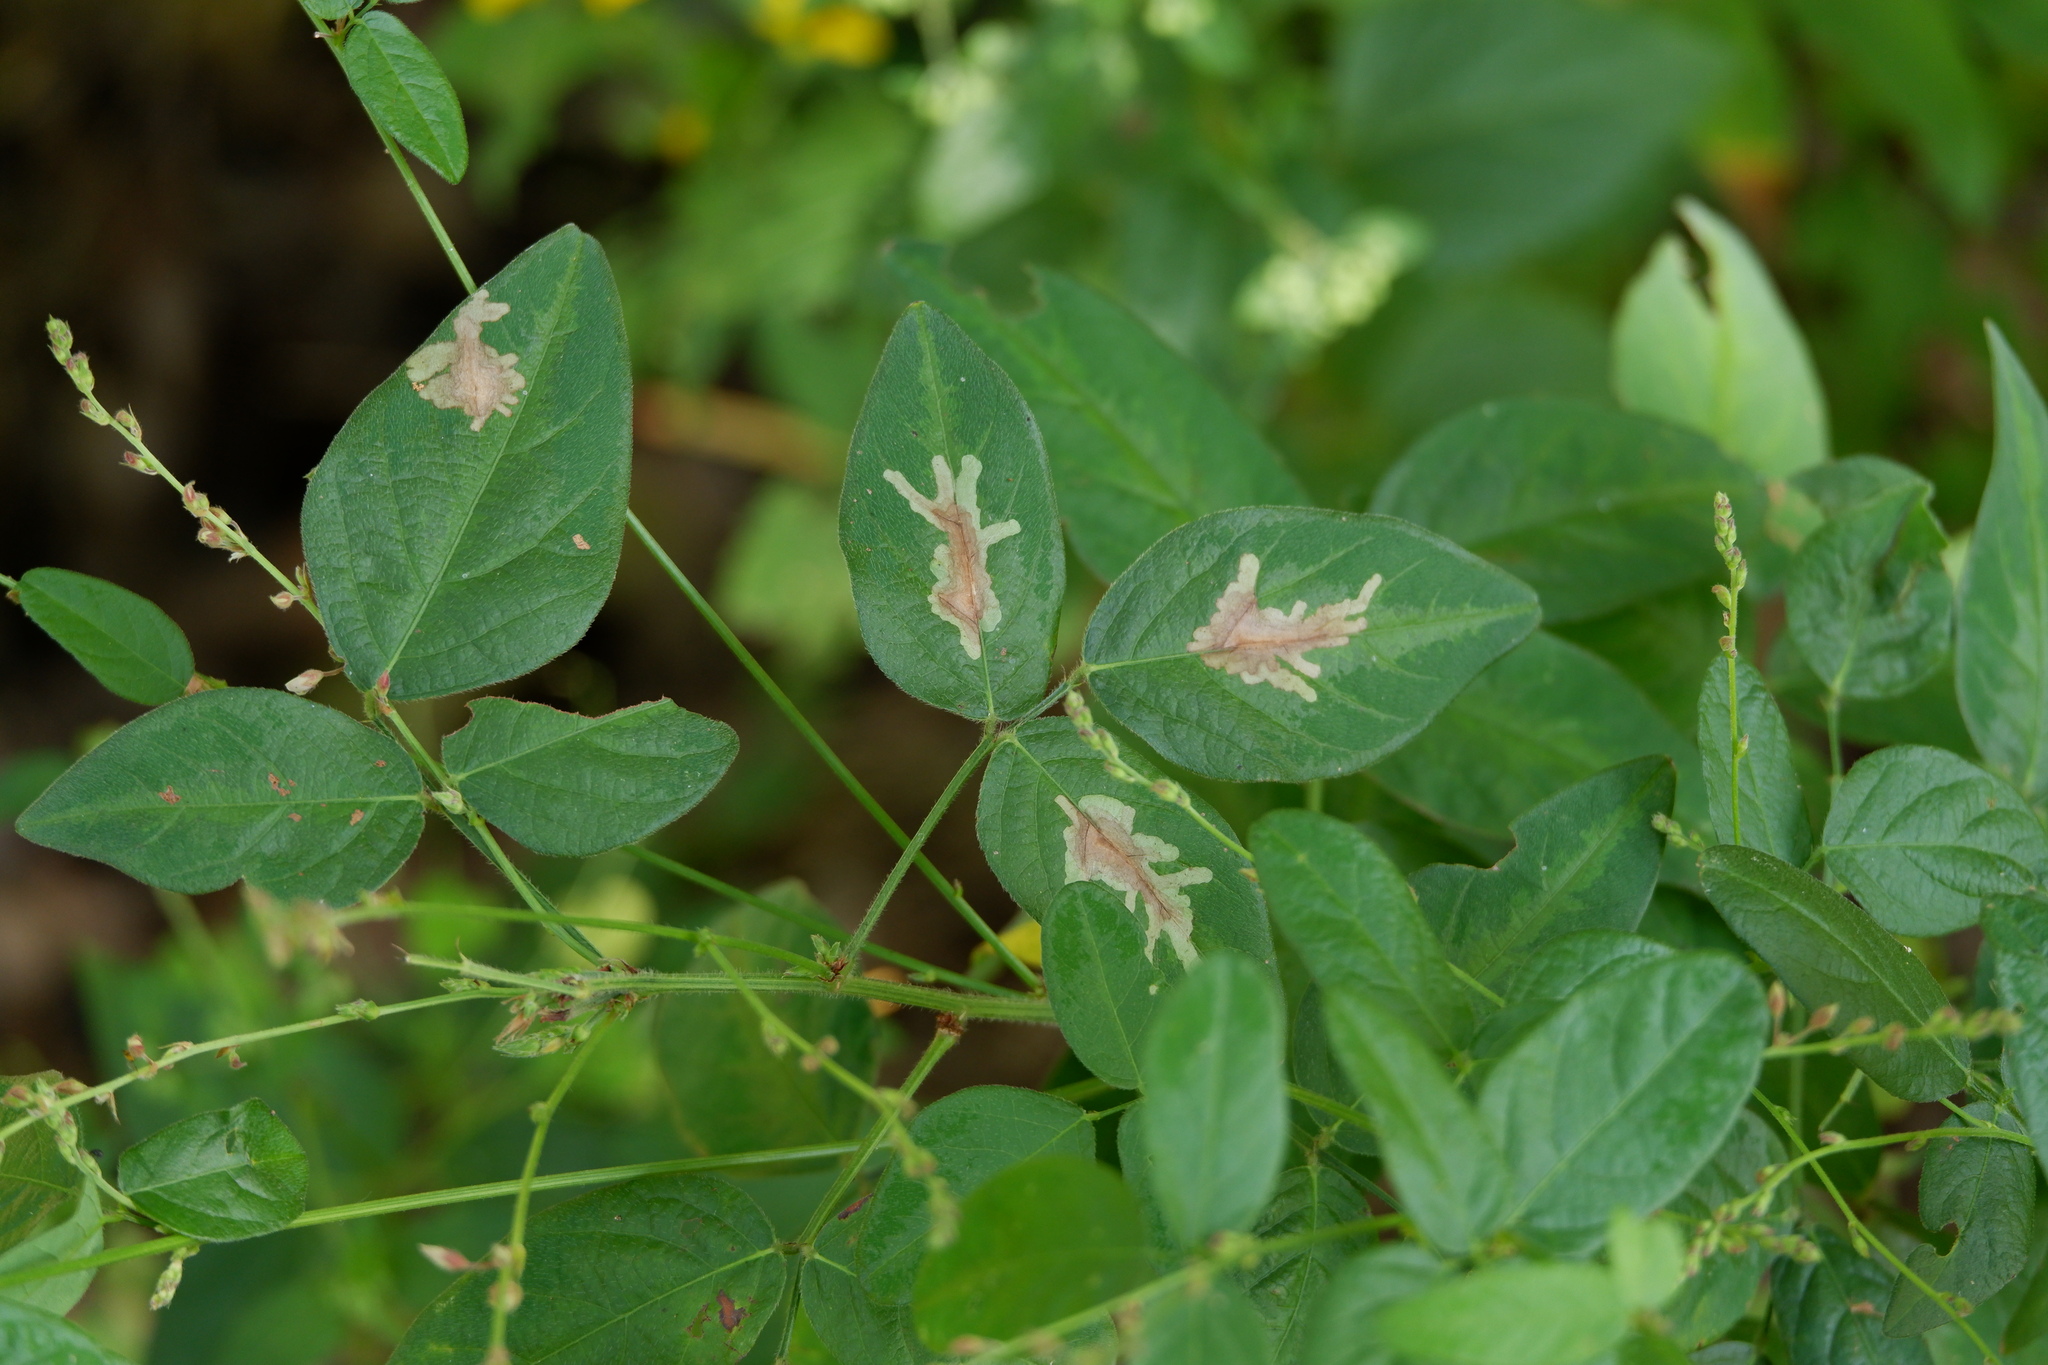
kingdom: Animalia
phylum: Arthropoda
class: Insecta
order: Lepidoptera
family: Gracillariidae
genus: Parectopa
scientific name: Parectopa robiniella
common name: Locust digitate leafminer
